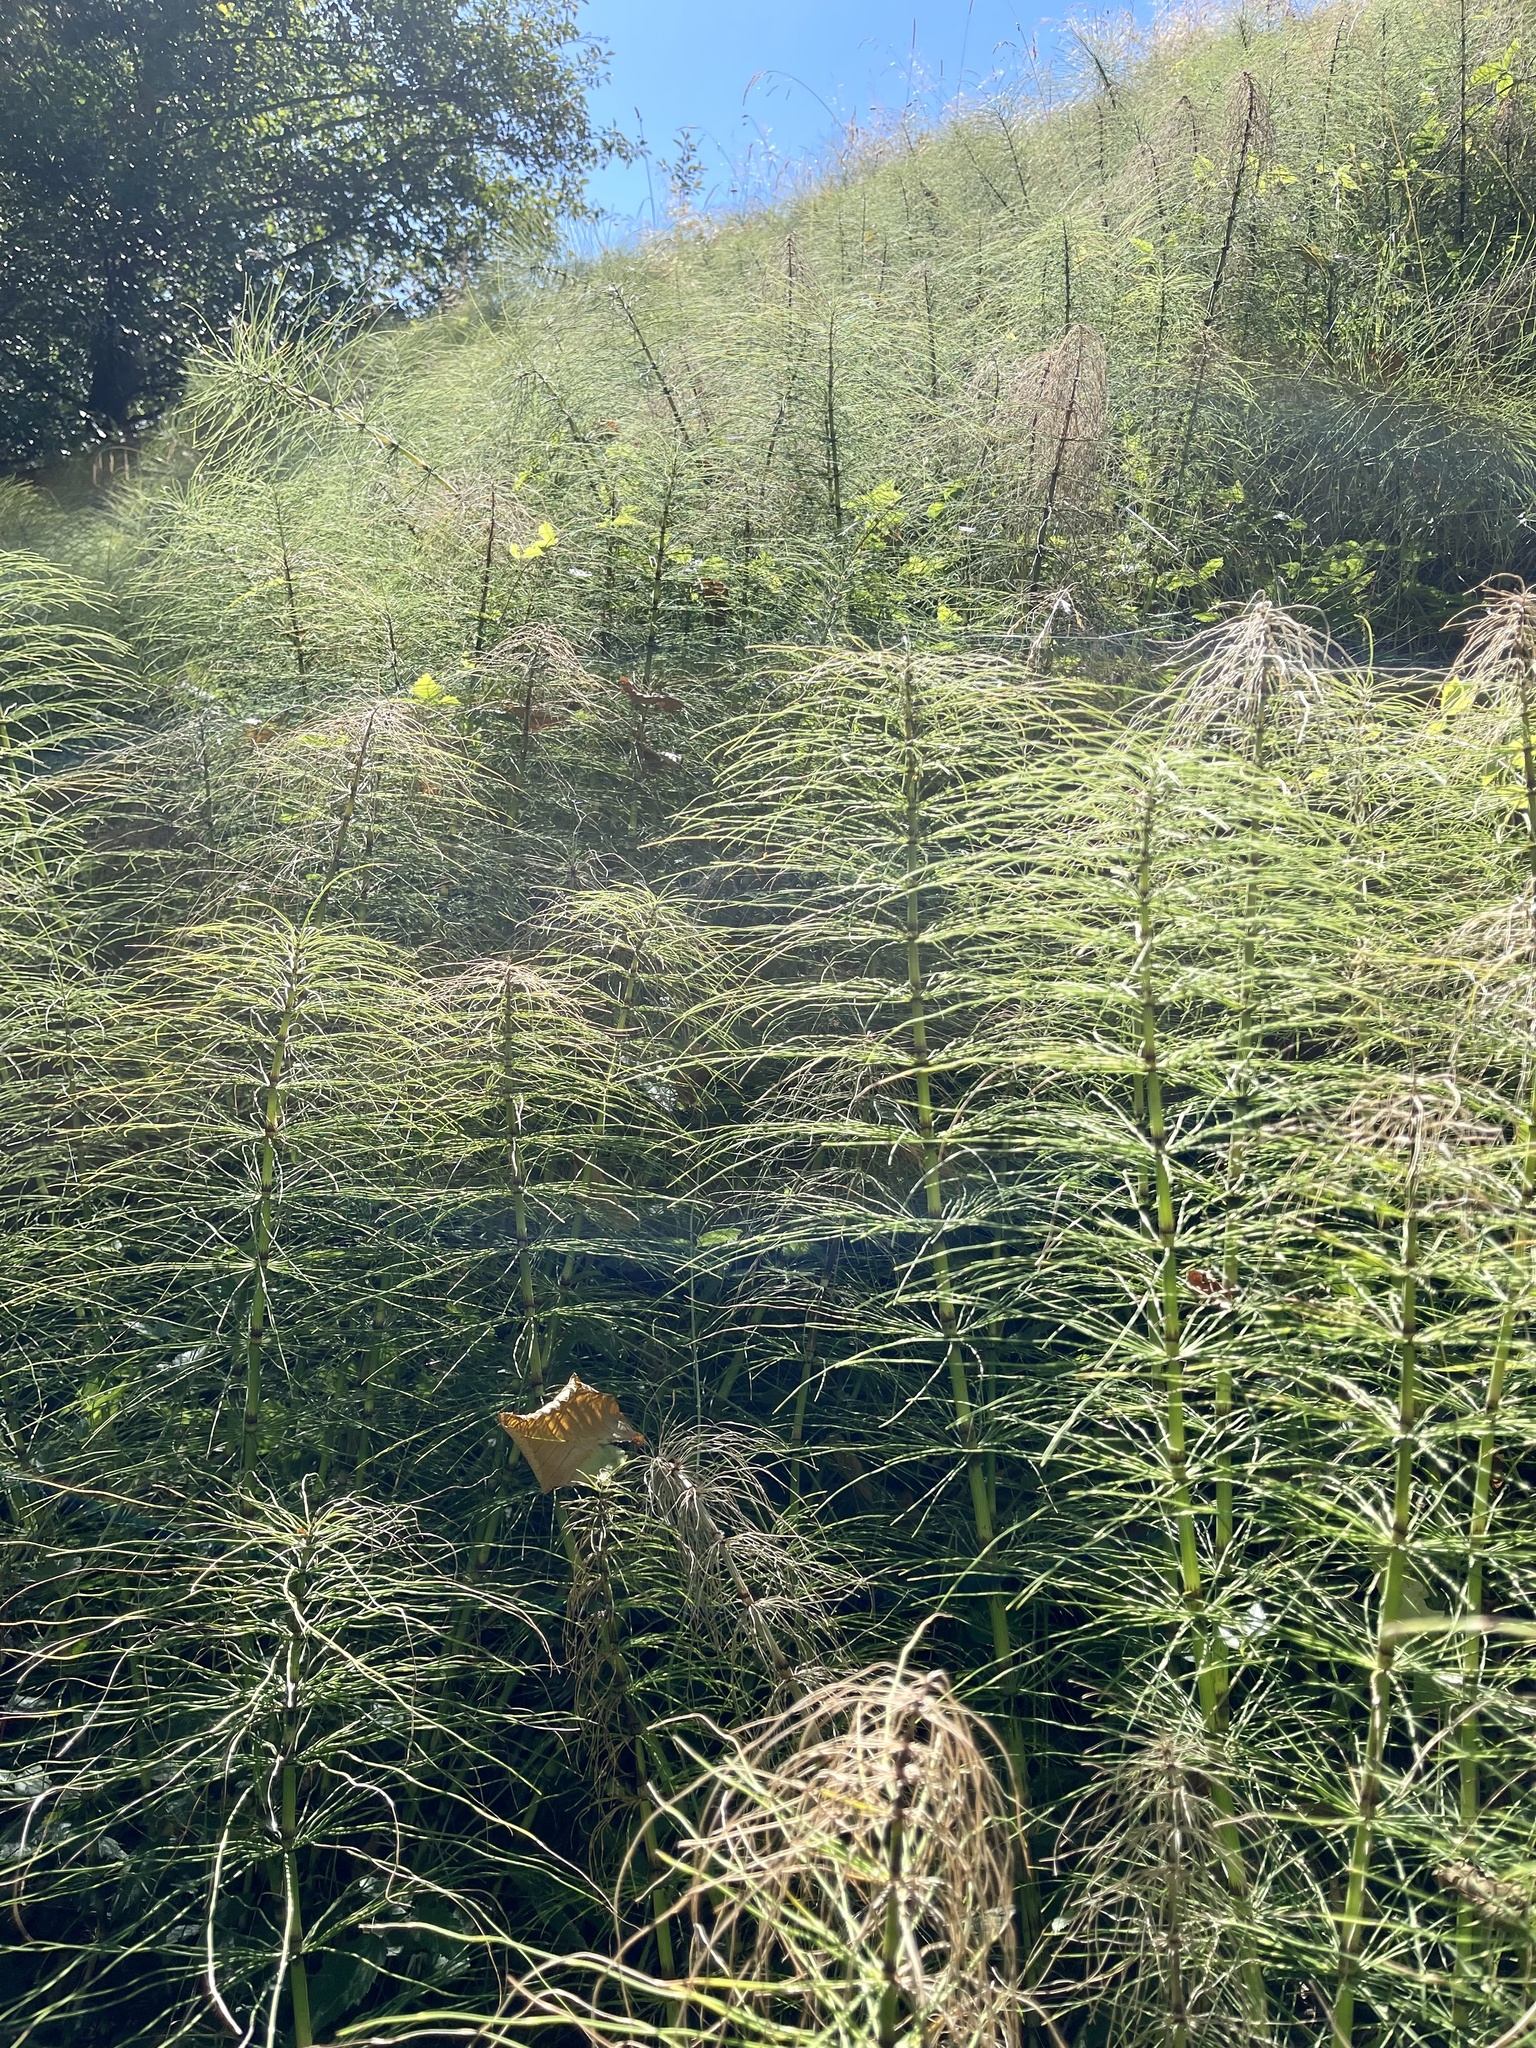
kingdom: Plantae
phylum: Tracheophyta
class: Polypodiopsida
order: Equisetales
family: Equisetaceae
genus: Equisetum
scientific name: Equisetum telmateia
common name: Great horsetail
